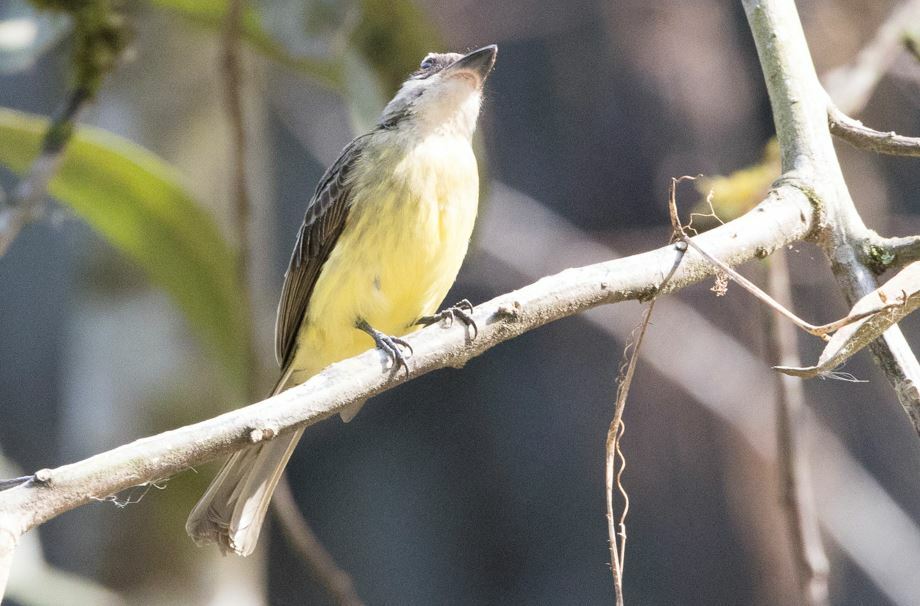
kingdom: Animalia
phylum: Chordata
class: Aves
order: Passeriformes
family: Tyrannidae
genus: Myiodynastes
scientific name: Myiodynastes chrysocephalus
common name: Golden-crowned flycatcher
